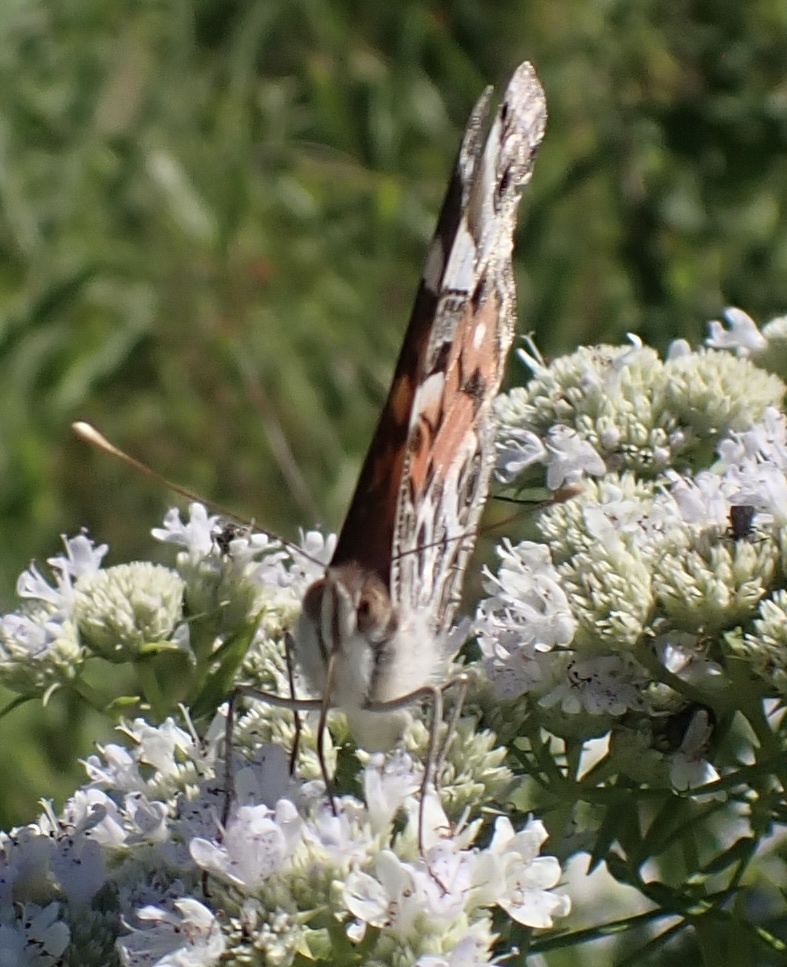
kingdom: Animalia
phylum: Arthropoda
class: Insecta
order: Lepidoptera
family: Nymphalidae
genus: Vanessa
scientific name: Vanessa virginiensis
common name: American lady
